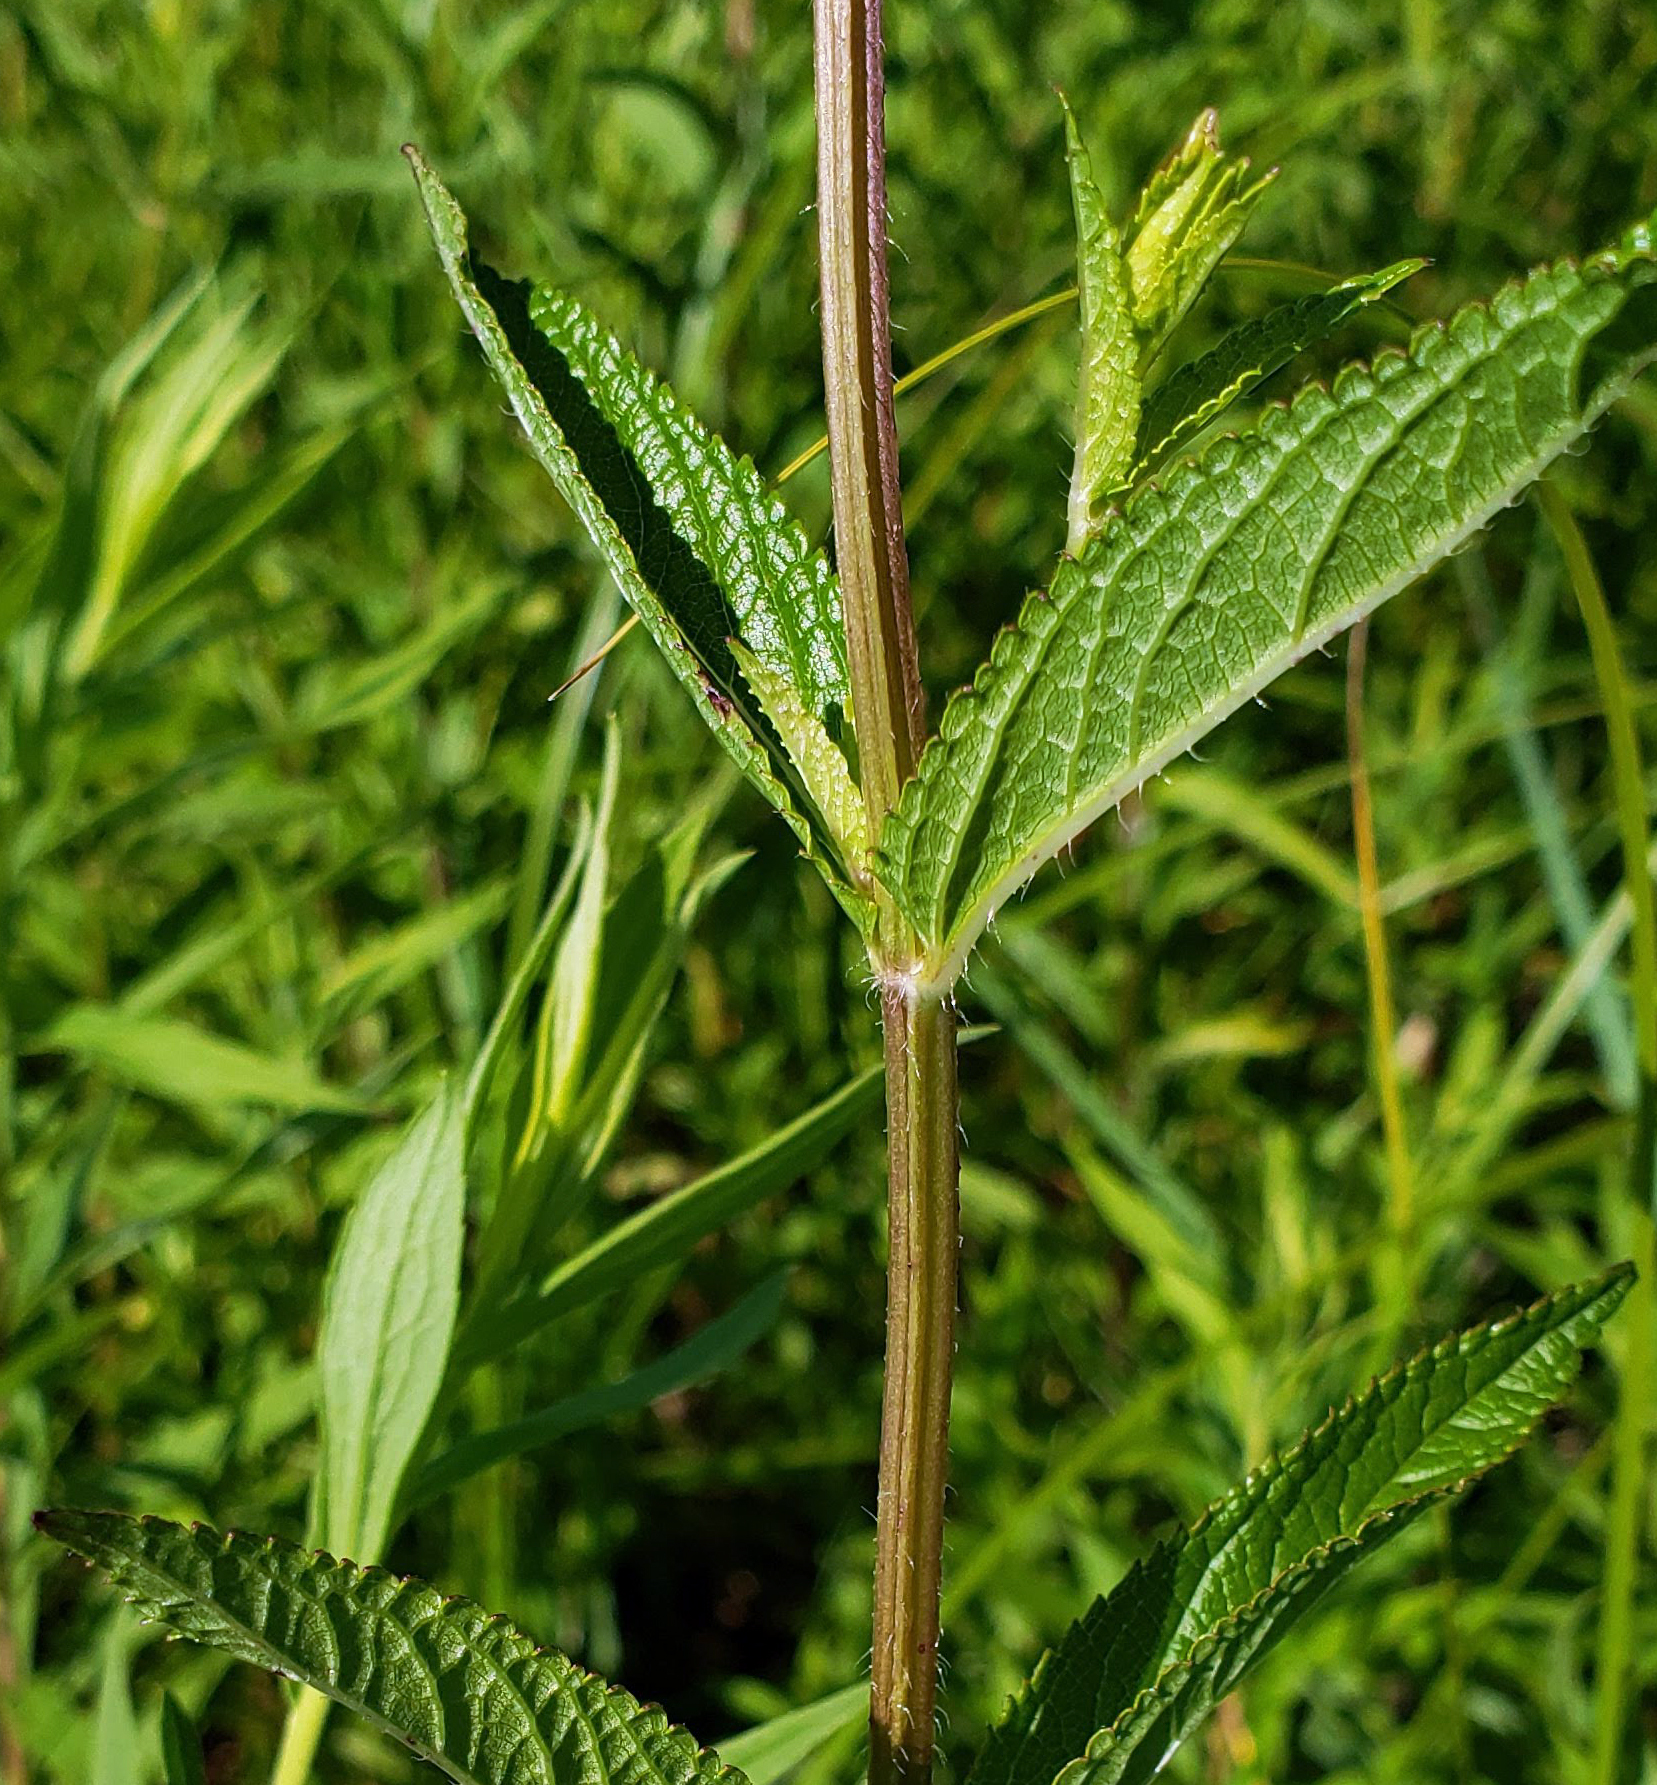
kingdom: Plantae
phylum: Tracheophyta
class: Magnoliopsida
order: Lamiales
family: Lamiaceae
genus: Stachys
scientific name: Stachys hispida
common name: Hispid hedge-nettle
